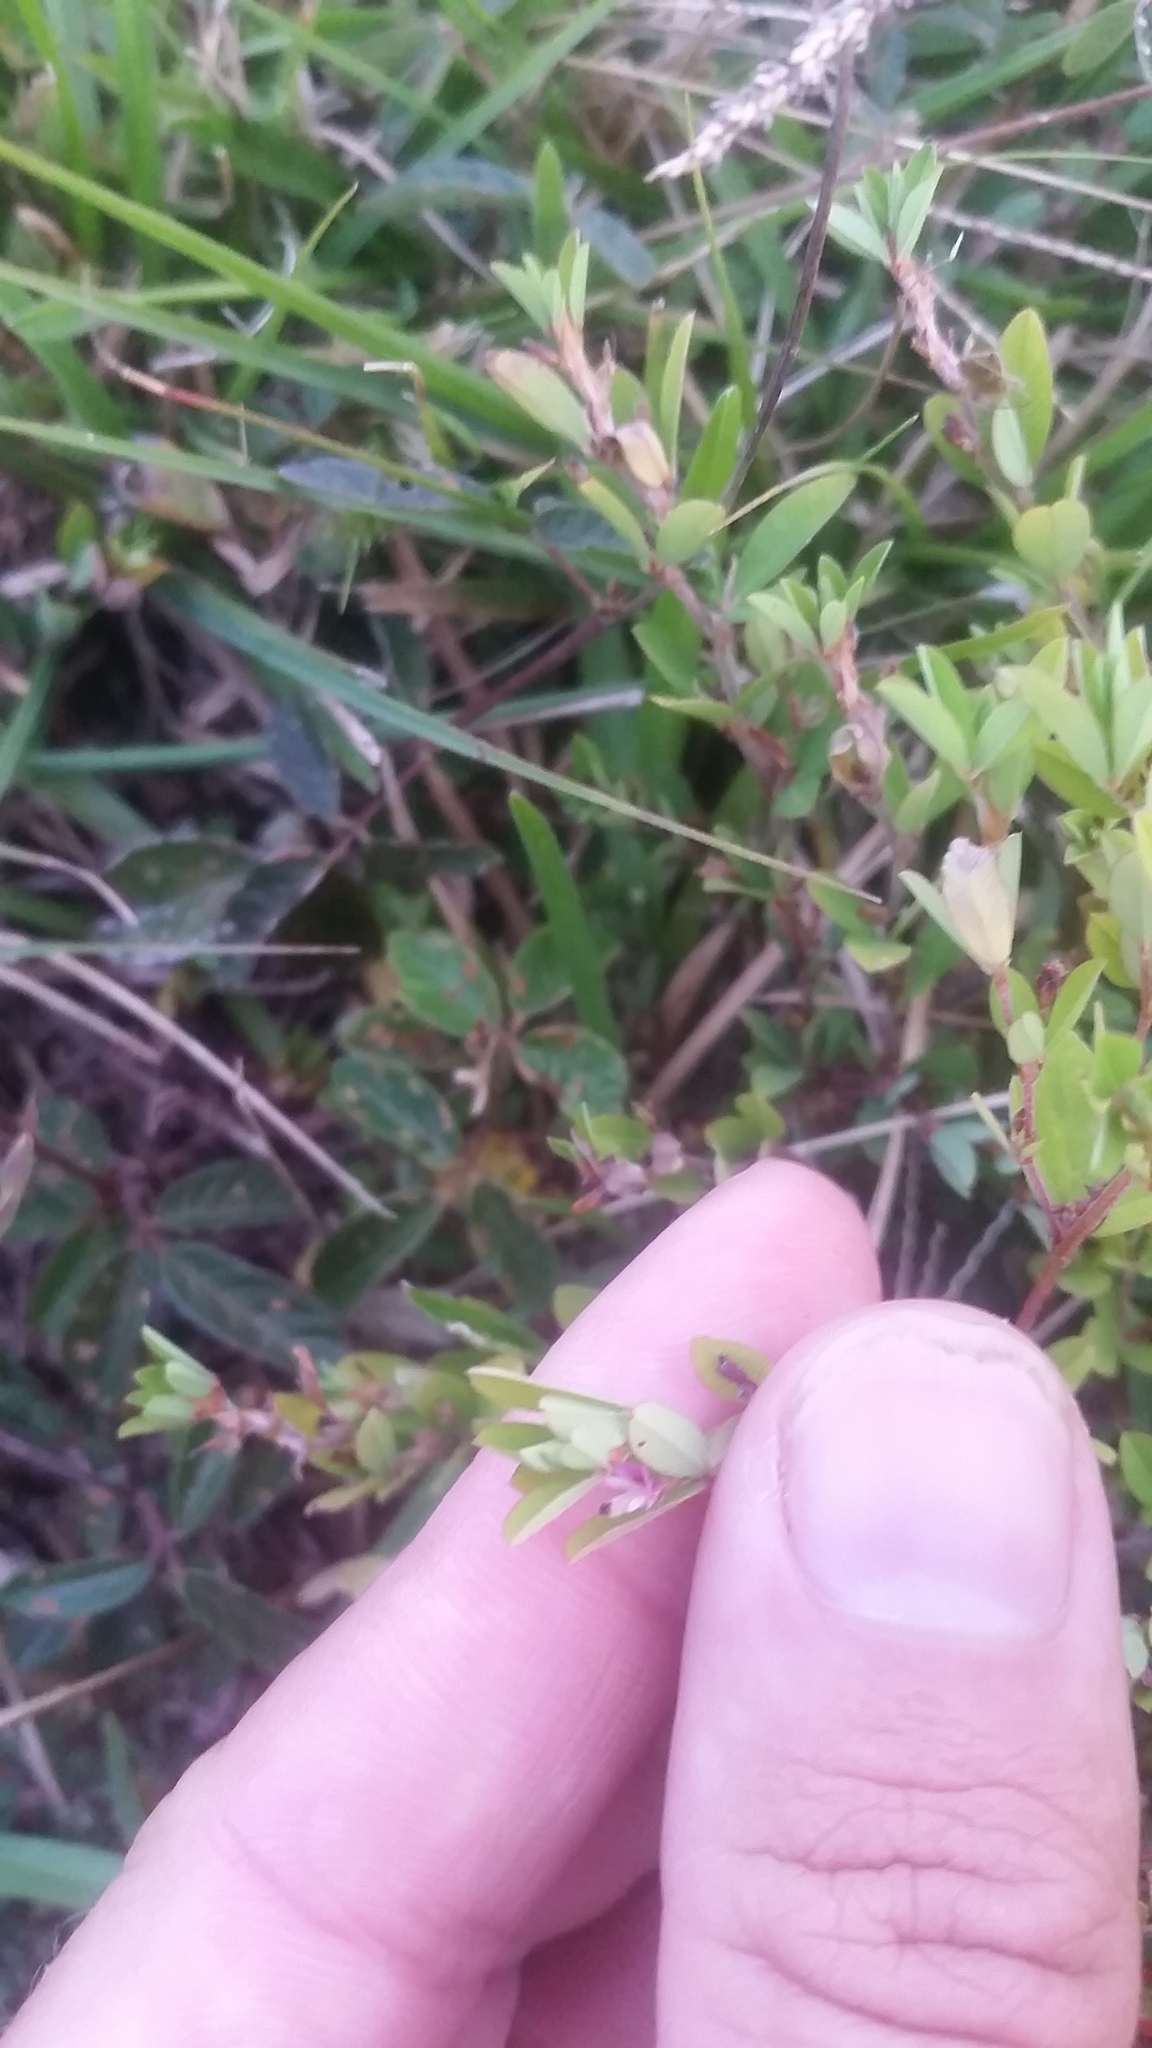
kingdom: Plantae
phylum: Tracheophyta
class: Magnoliopsida
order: Fabales
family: Fabaceae
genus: Kummerowia
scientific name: Kummerowia striata
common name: Japanese clover
